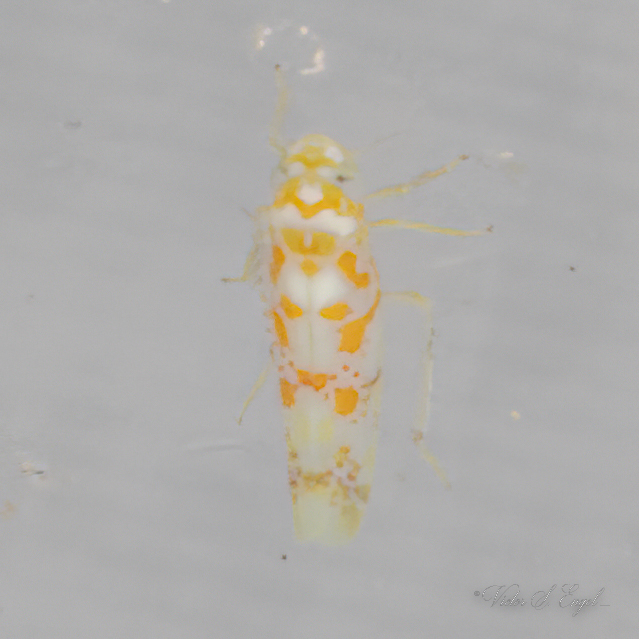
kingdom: Animalia
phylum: Arthropoda
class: Insecta
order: Hemiptera
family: Cicadellidae
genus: Dikrella
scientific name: Dikrella maculata
